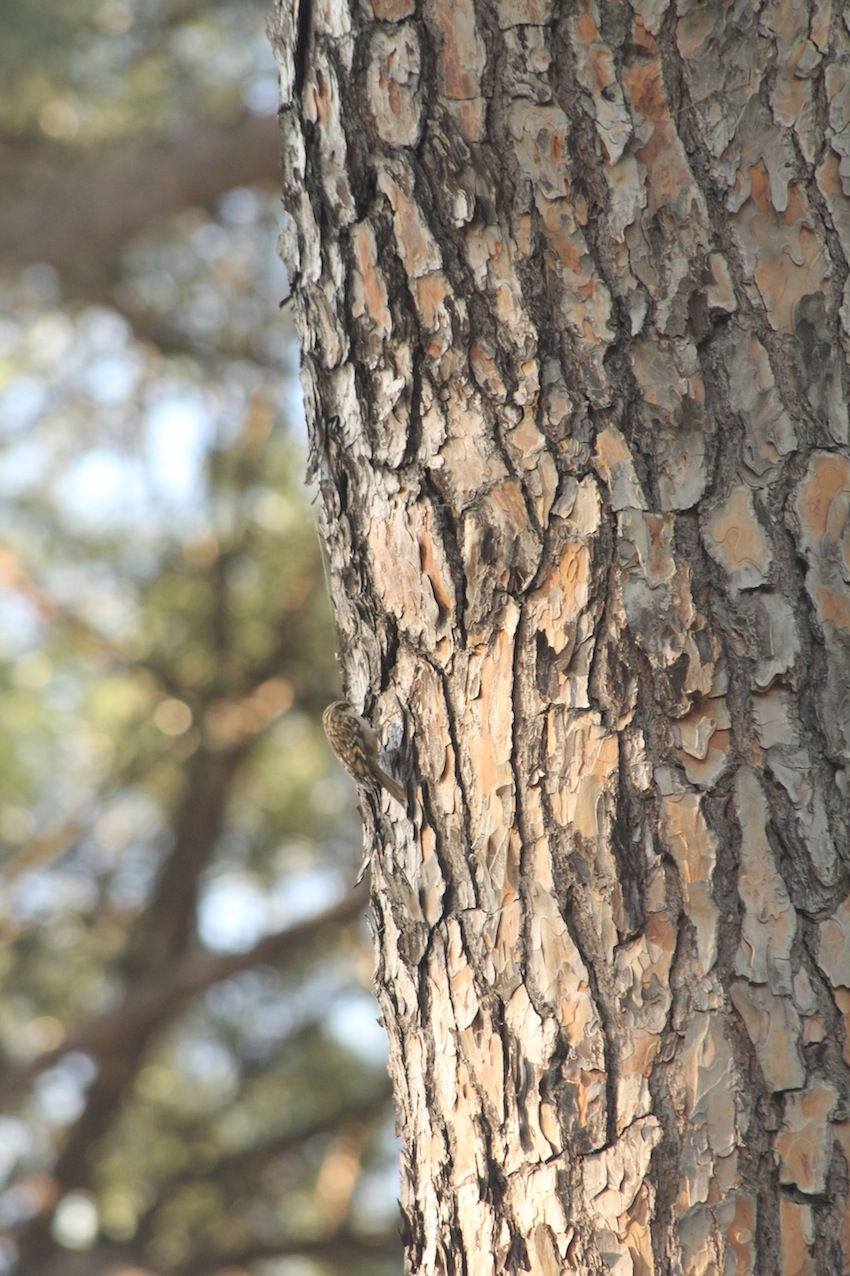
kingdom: Animalia
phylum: Chordata
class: Aves
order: Passeriformes
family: Certhiidae
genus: Certhia
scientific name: Certhia brachydactyla
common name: Short-toed treecreeper
